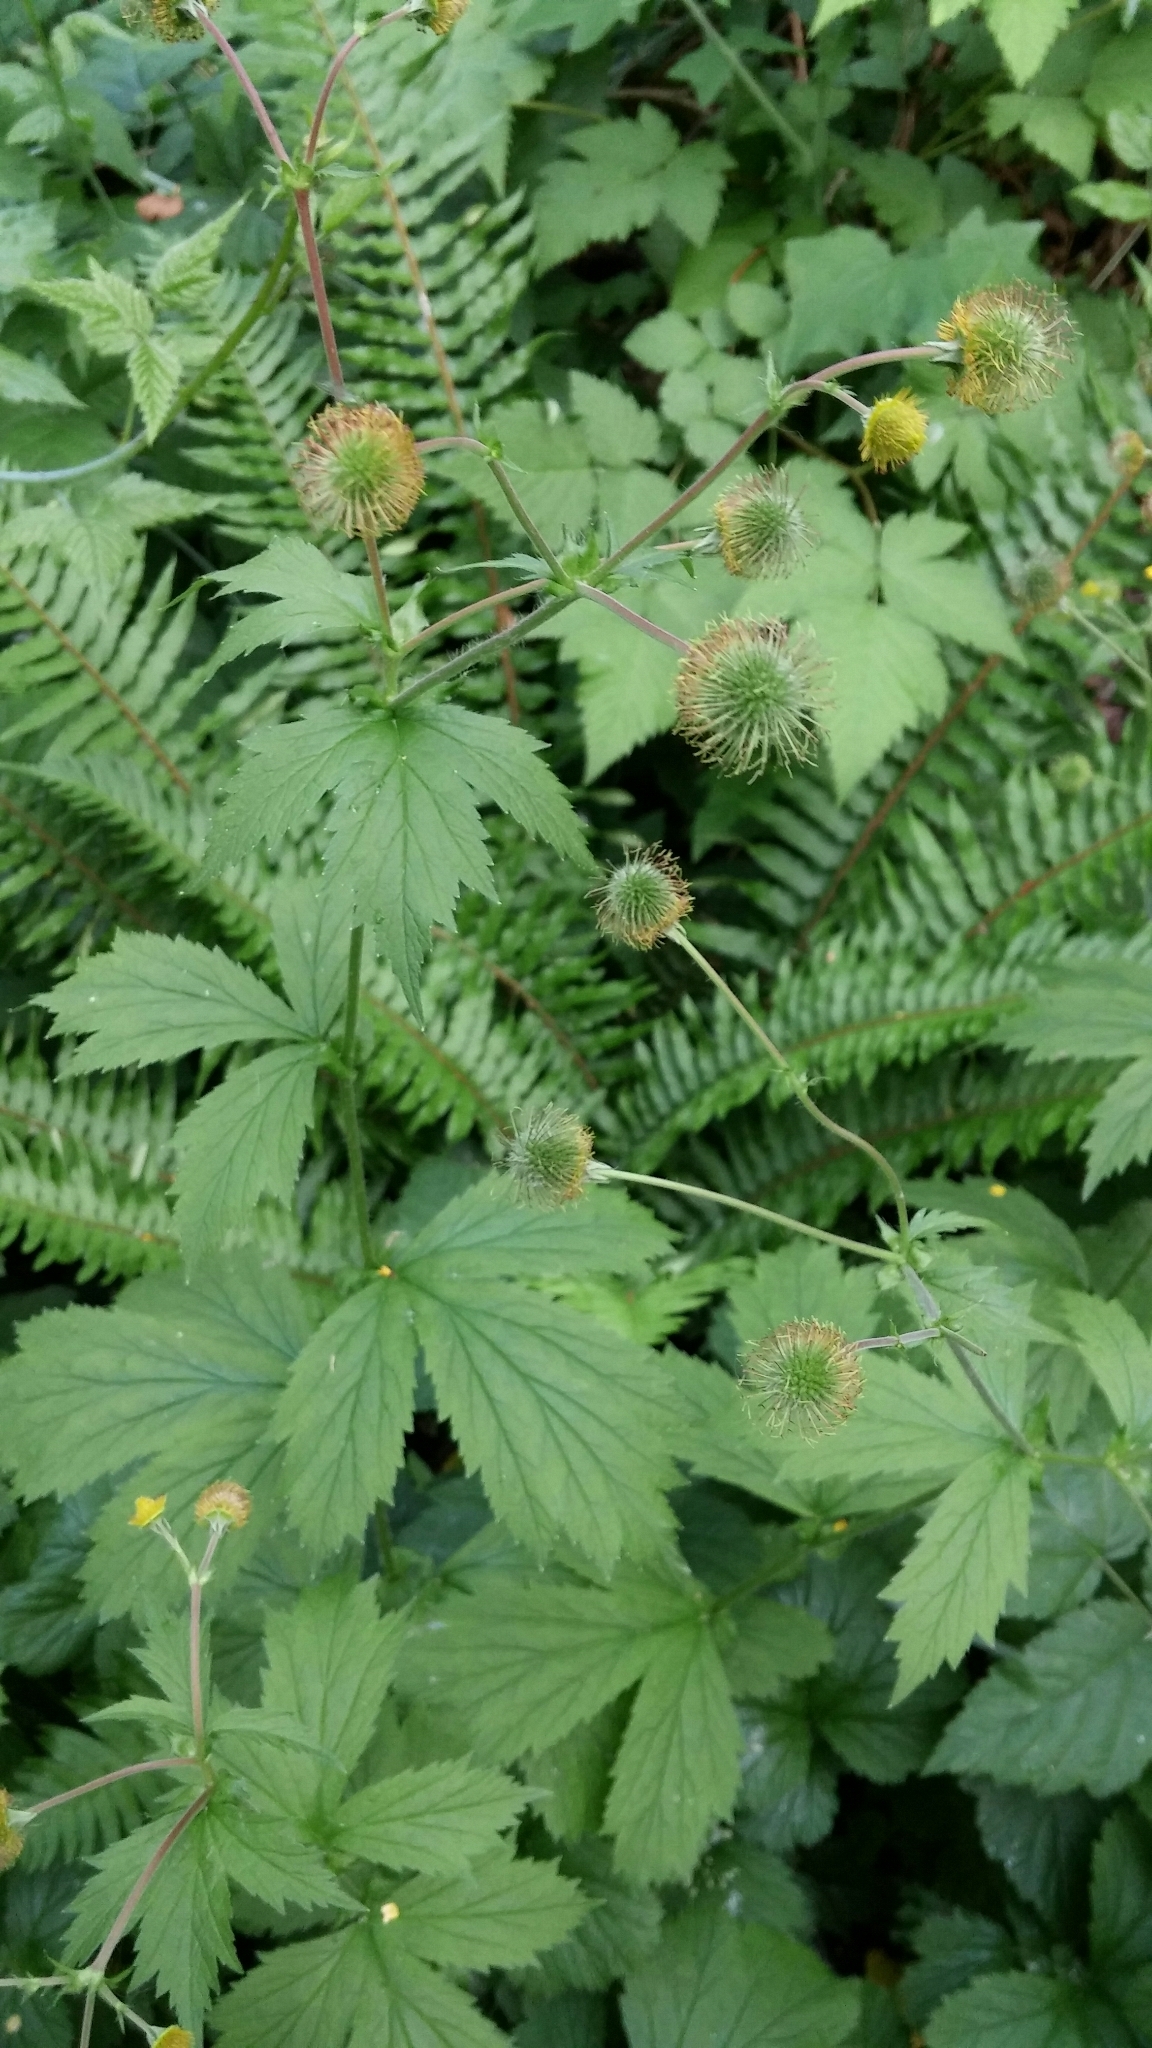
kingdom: Plantae
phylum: Tracheophyta
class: Magnoliopsida
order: Rosales
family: Rosaceae
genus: Geum
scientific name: Geum macrophyllum
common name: Large-leaved avens
